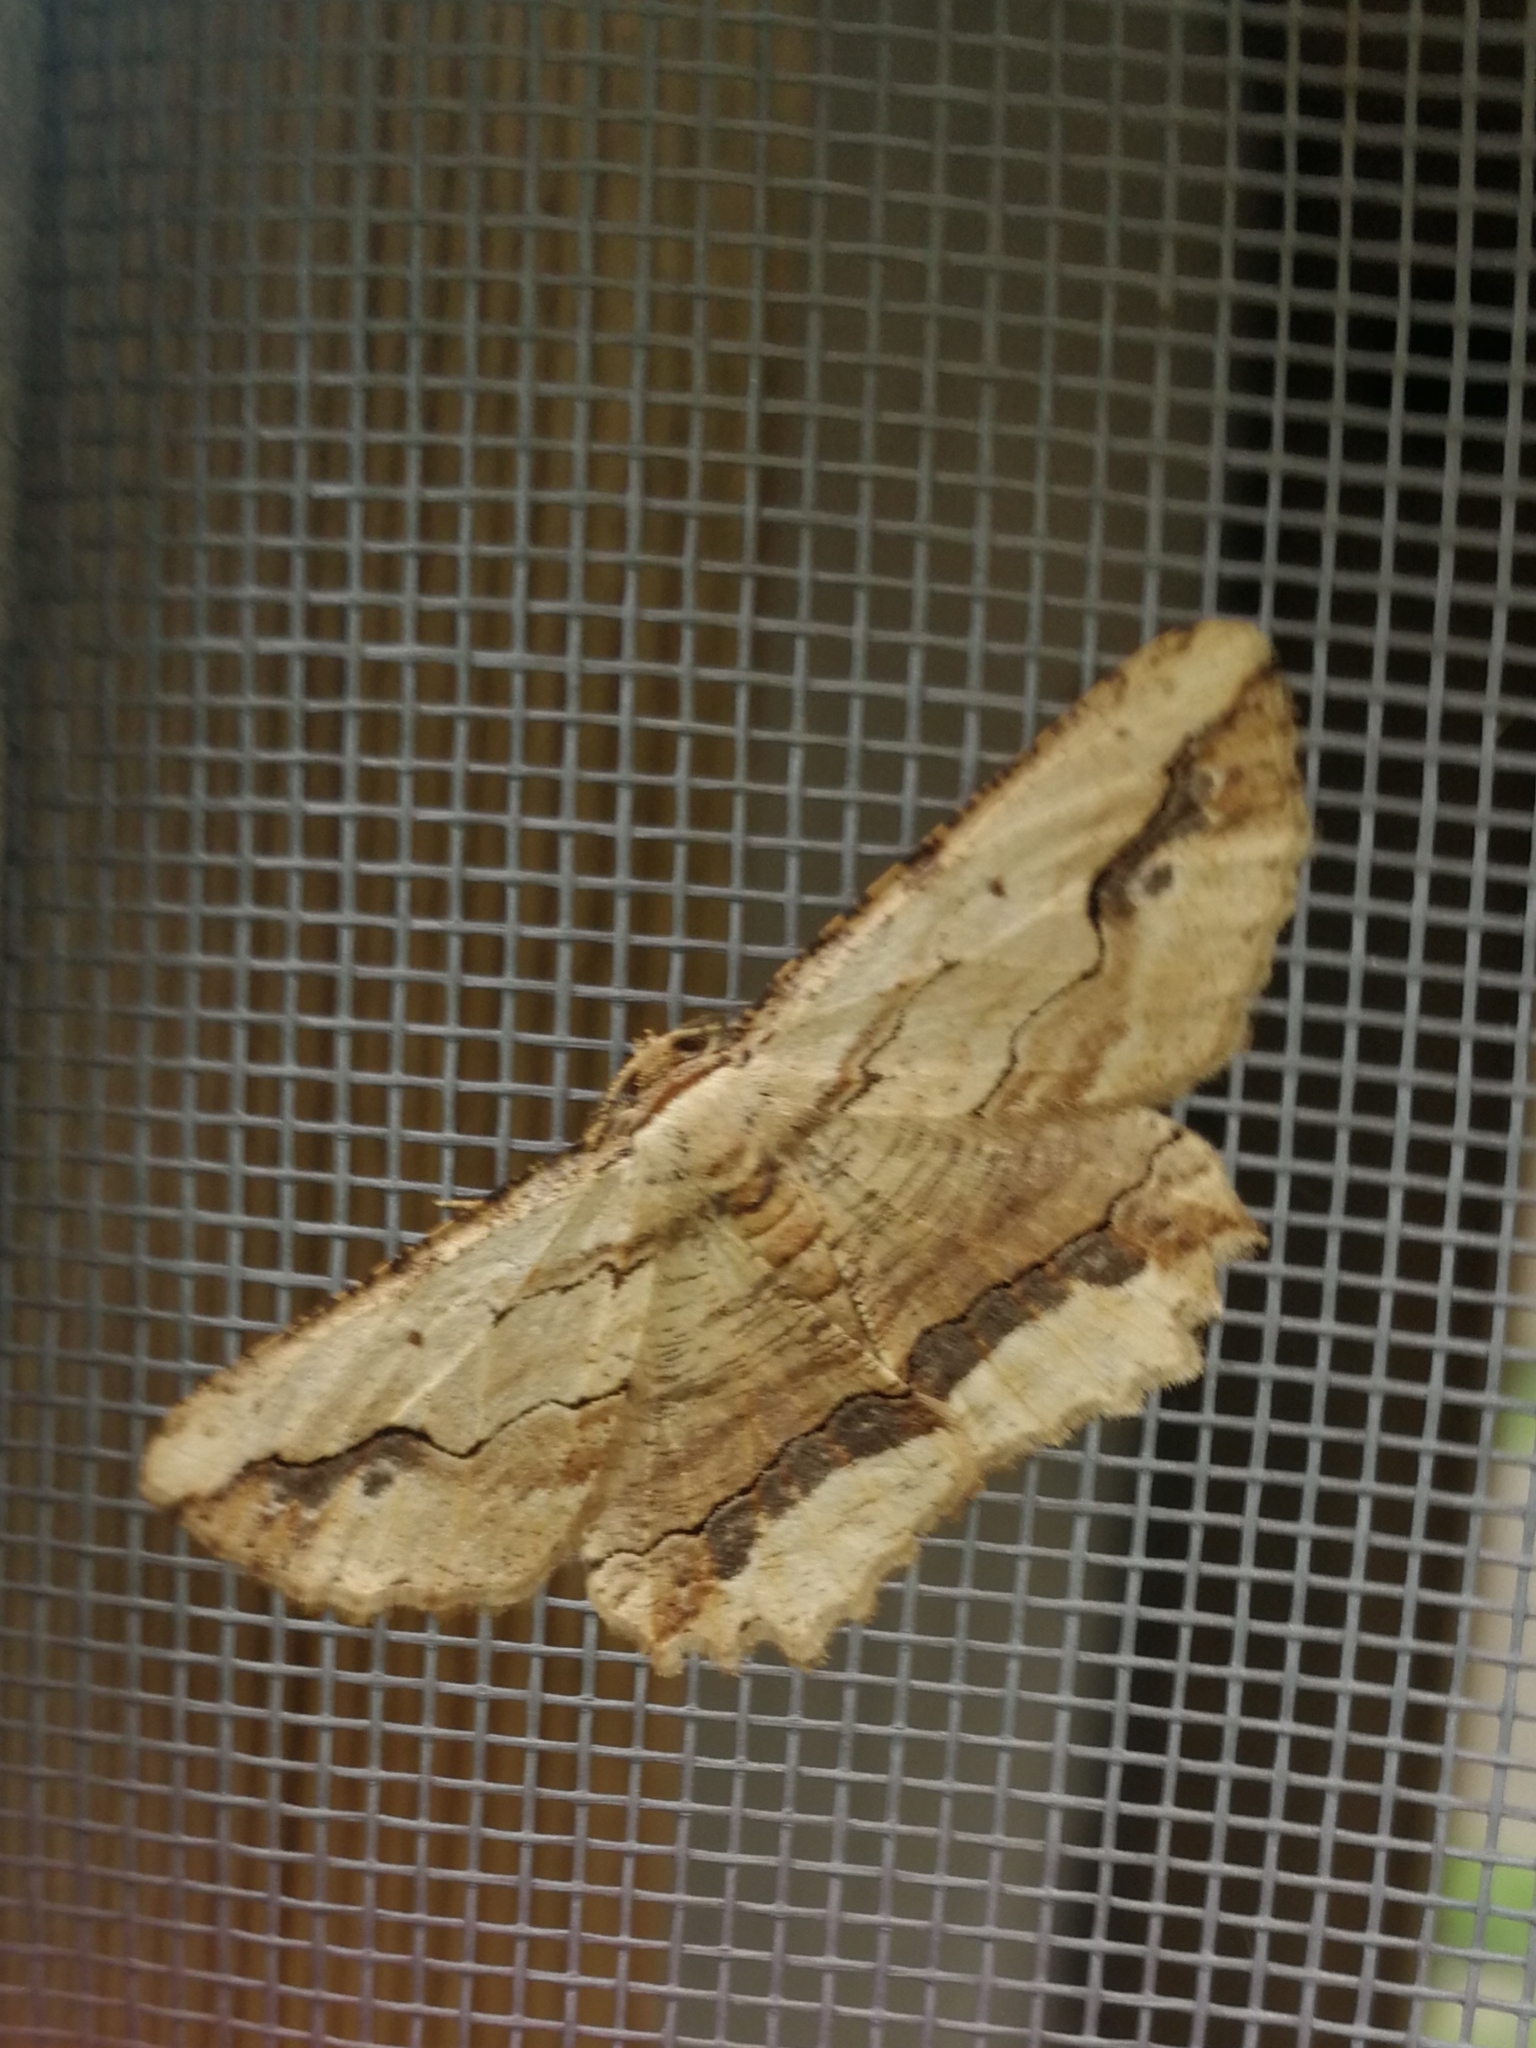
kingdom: Animalia
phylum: Arthropoda
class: Insecta
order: Lepidoptera
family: Geometridae
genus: Menophra
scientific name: Menophra abruptaria
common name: Waved umber
